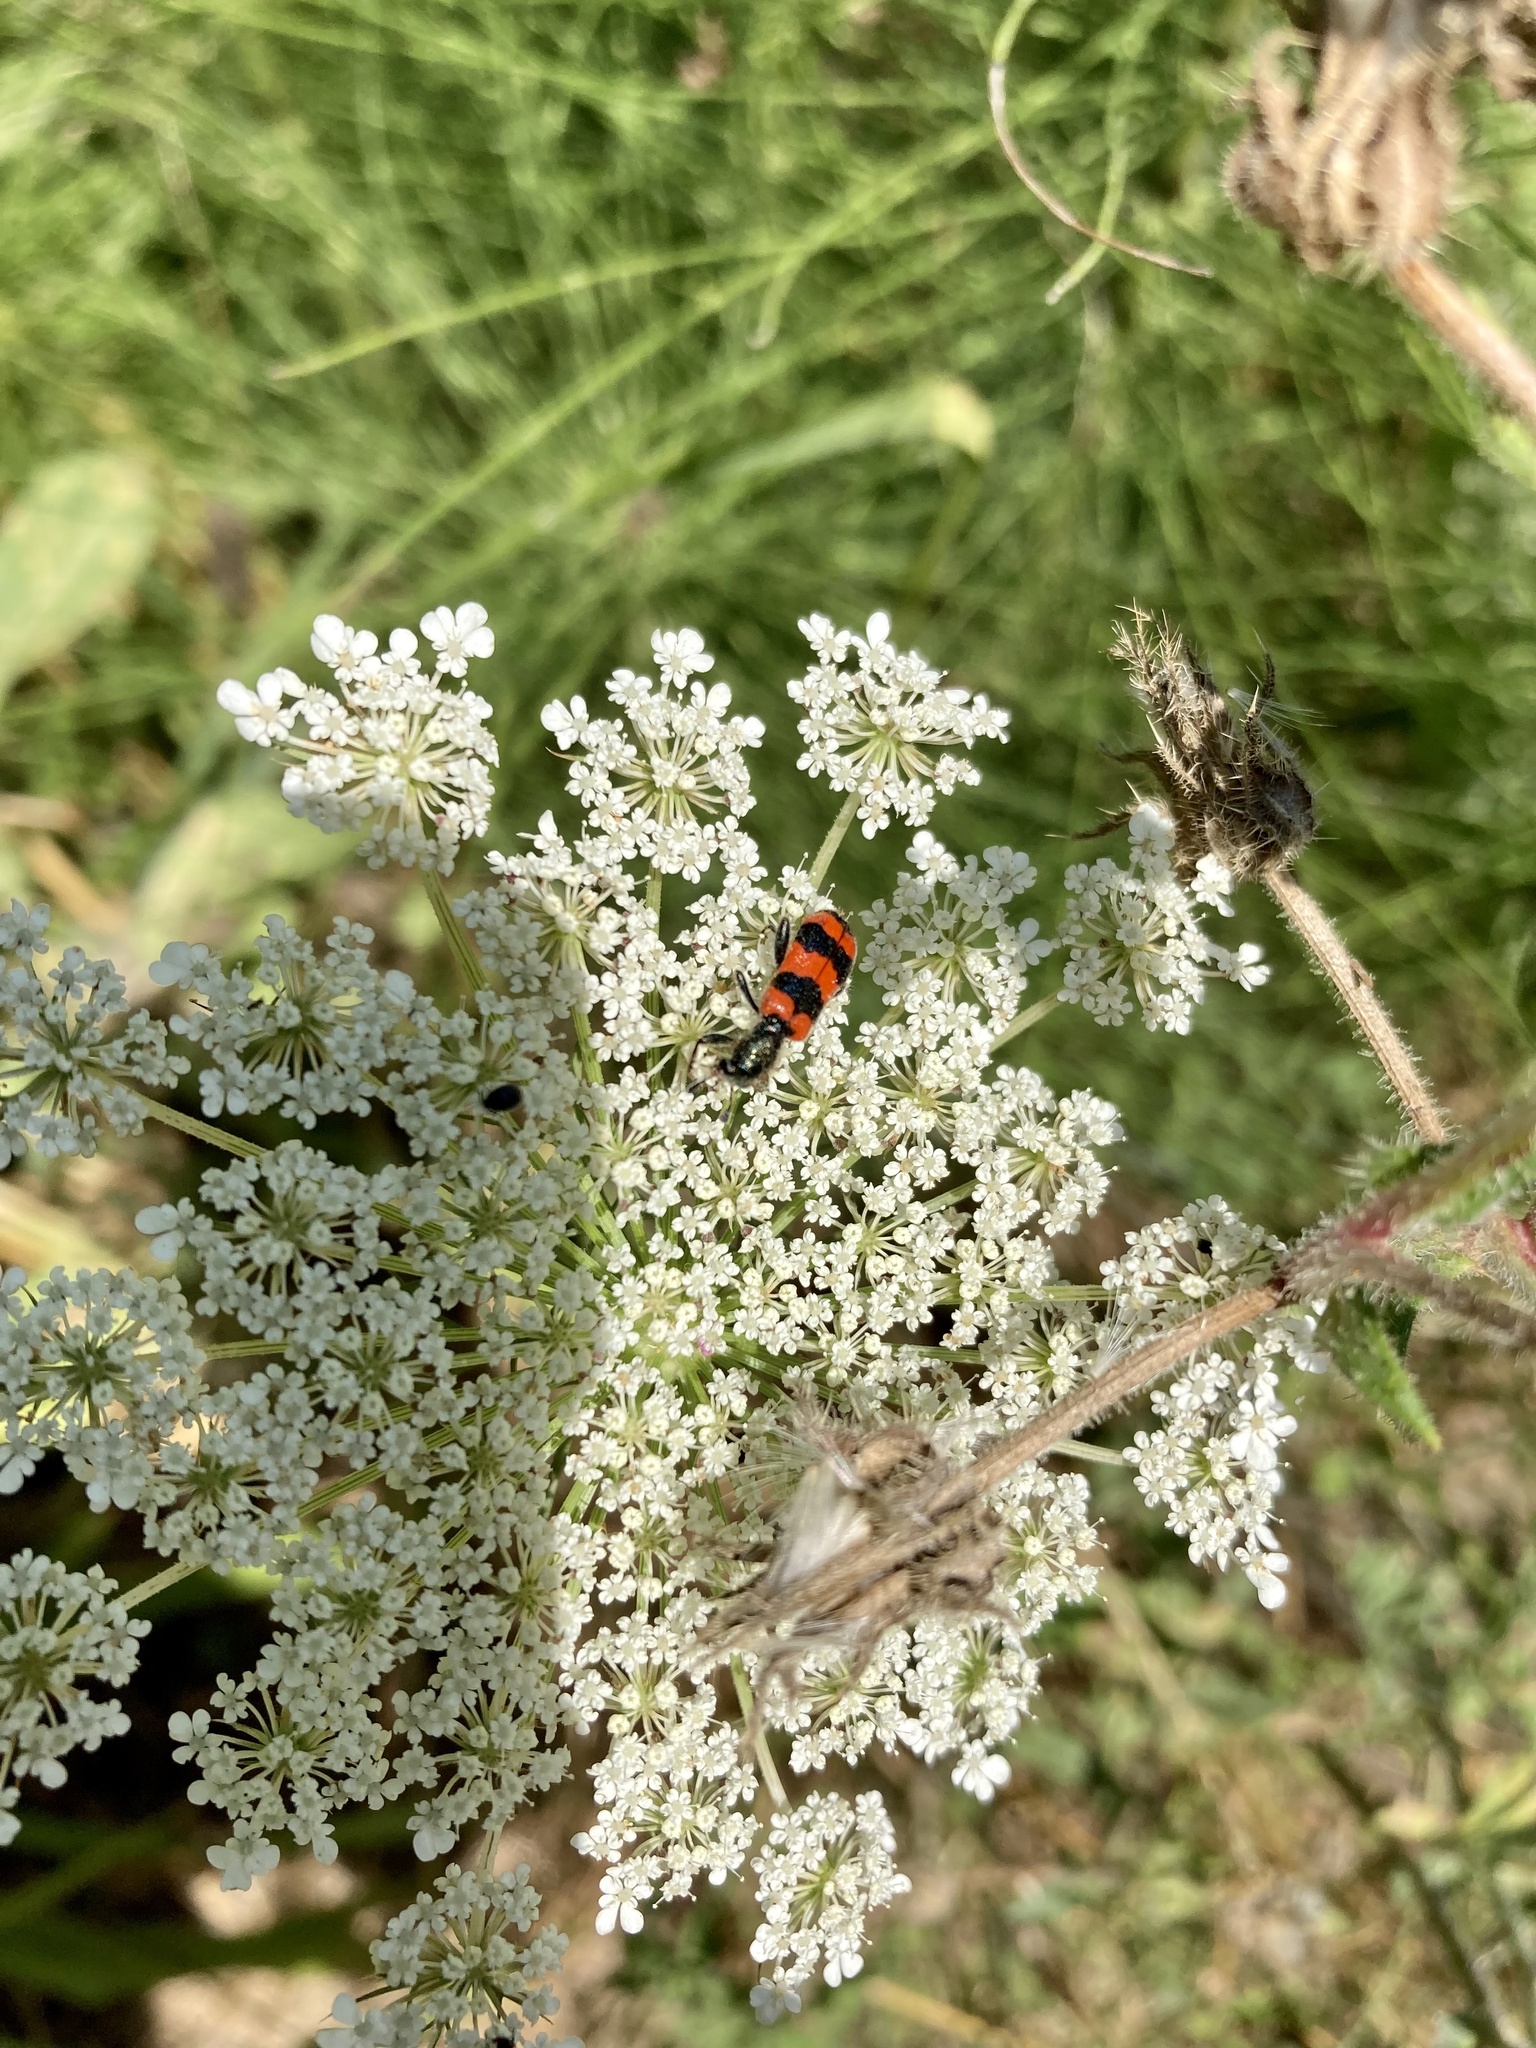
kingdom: Animalia
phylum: Arthropoda
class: Insecta
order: Coleoptera
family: Cleridae
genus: Trichodes
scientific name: Trichodes apiarius
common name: Bee-eating beetle
